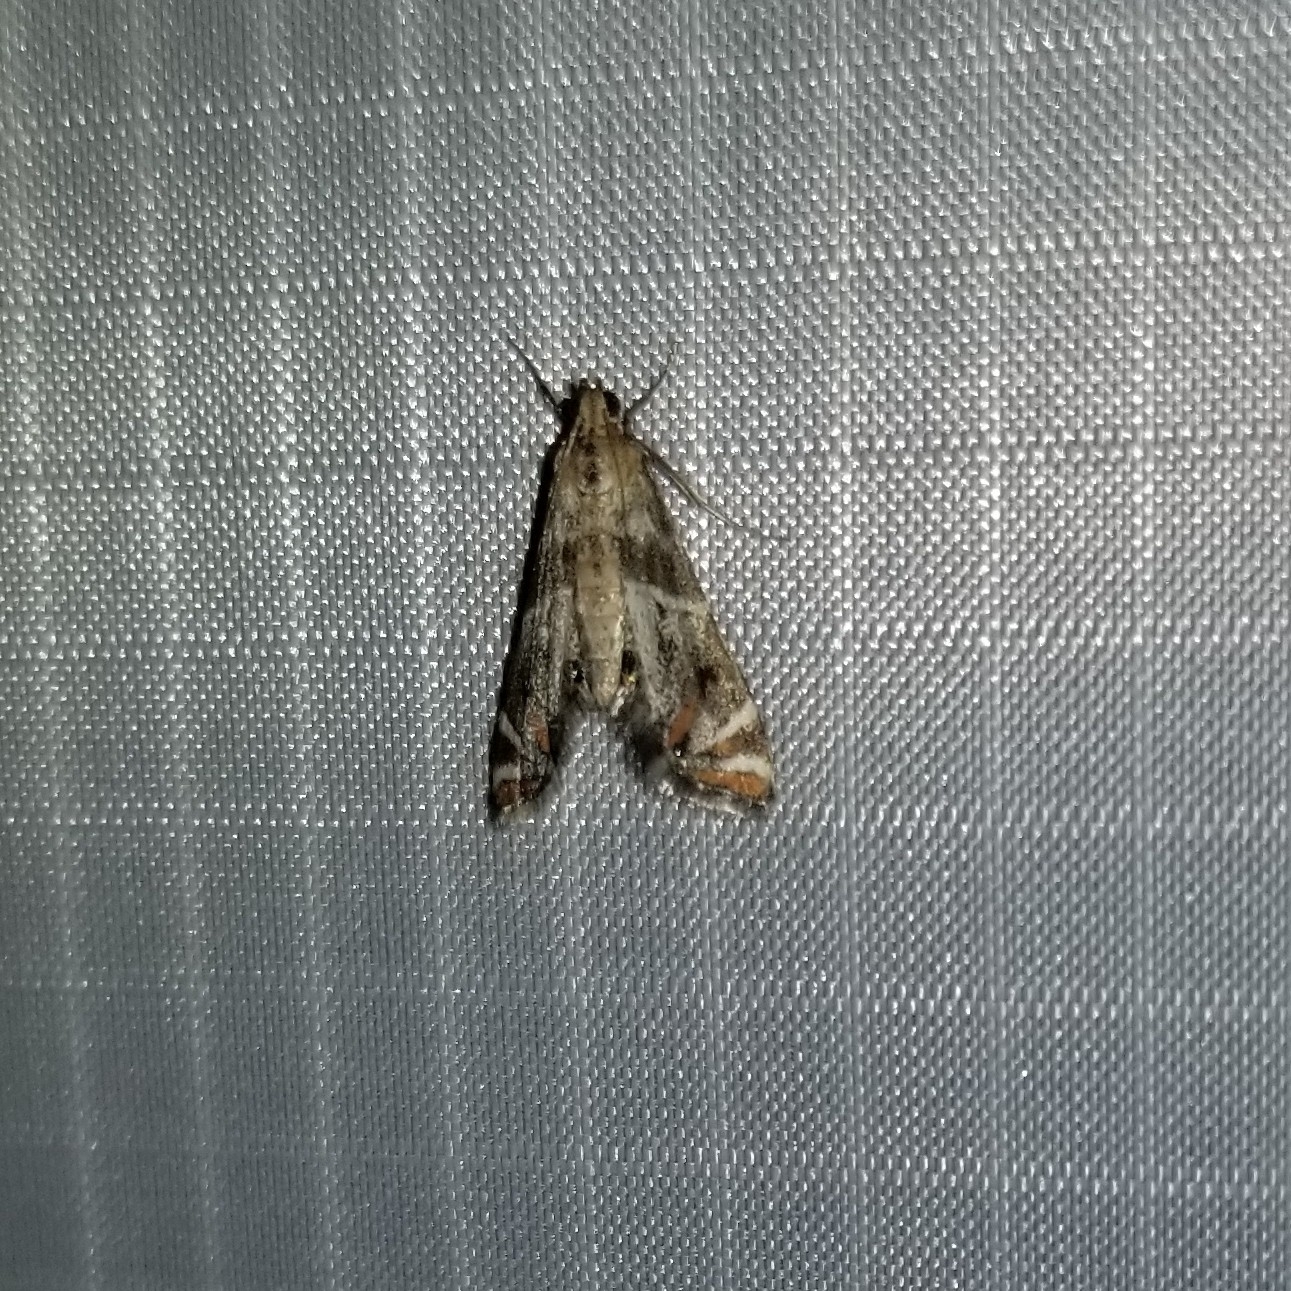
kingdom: Animalia
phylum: Arthropoda
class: Insecta
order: Lepidoptera
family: Crambidae
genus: Petrophila
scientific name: Petrophila jaliscalis
